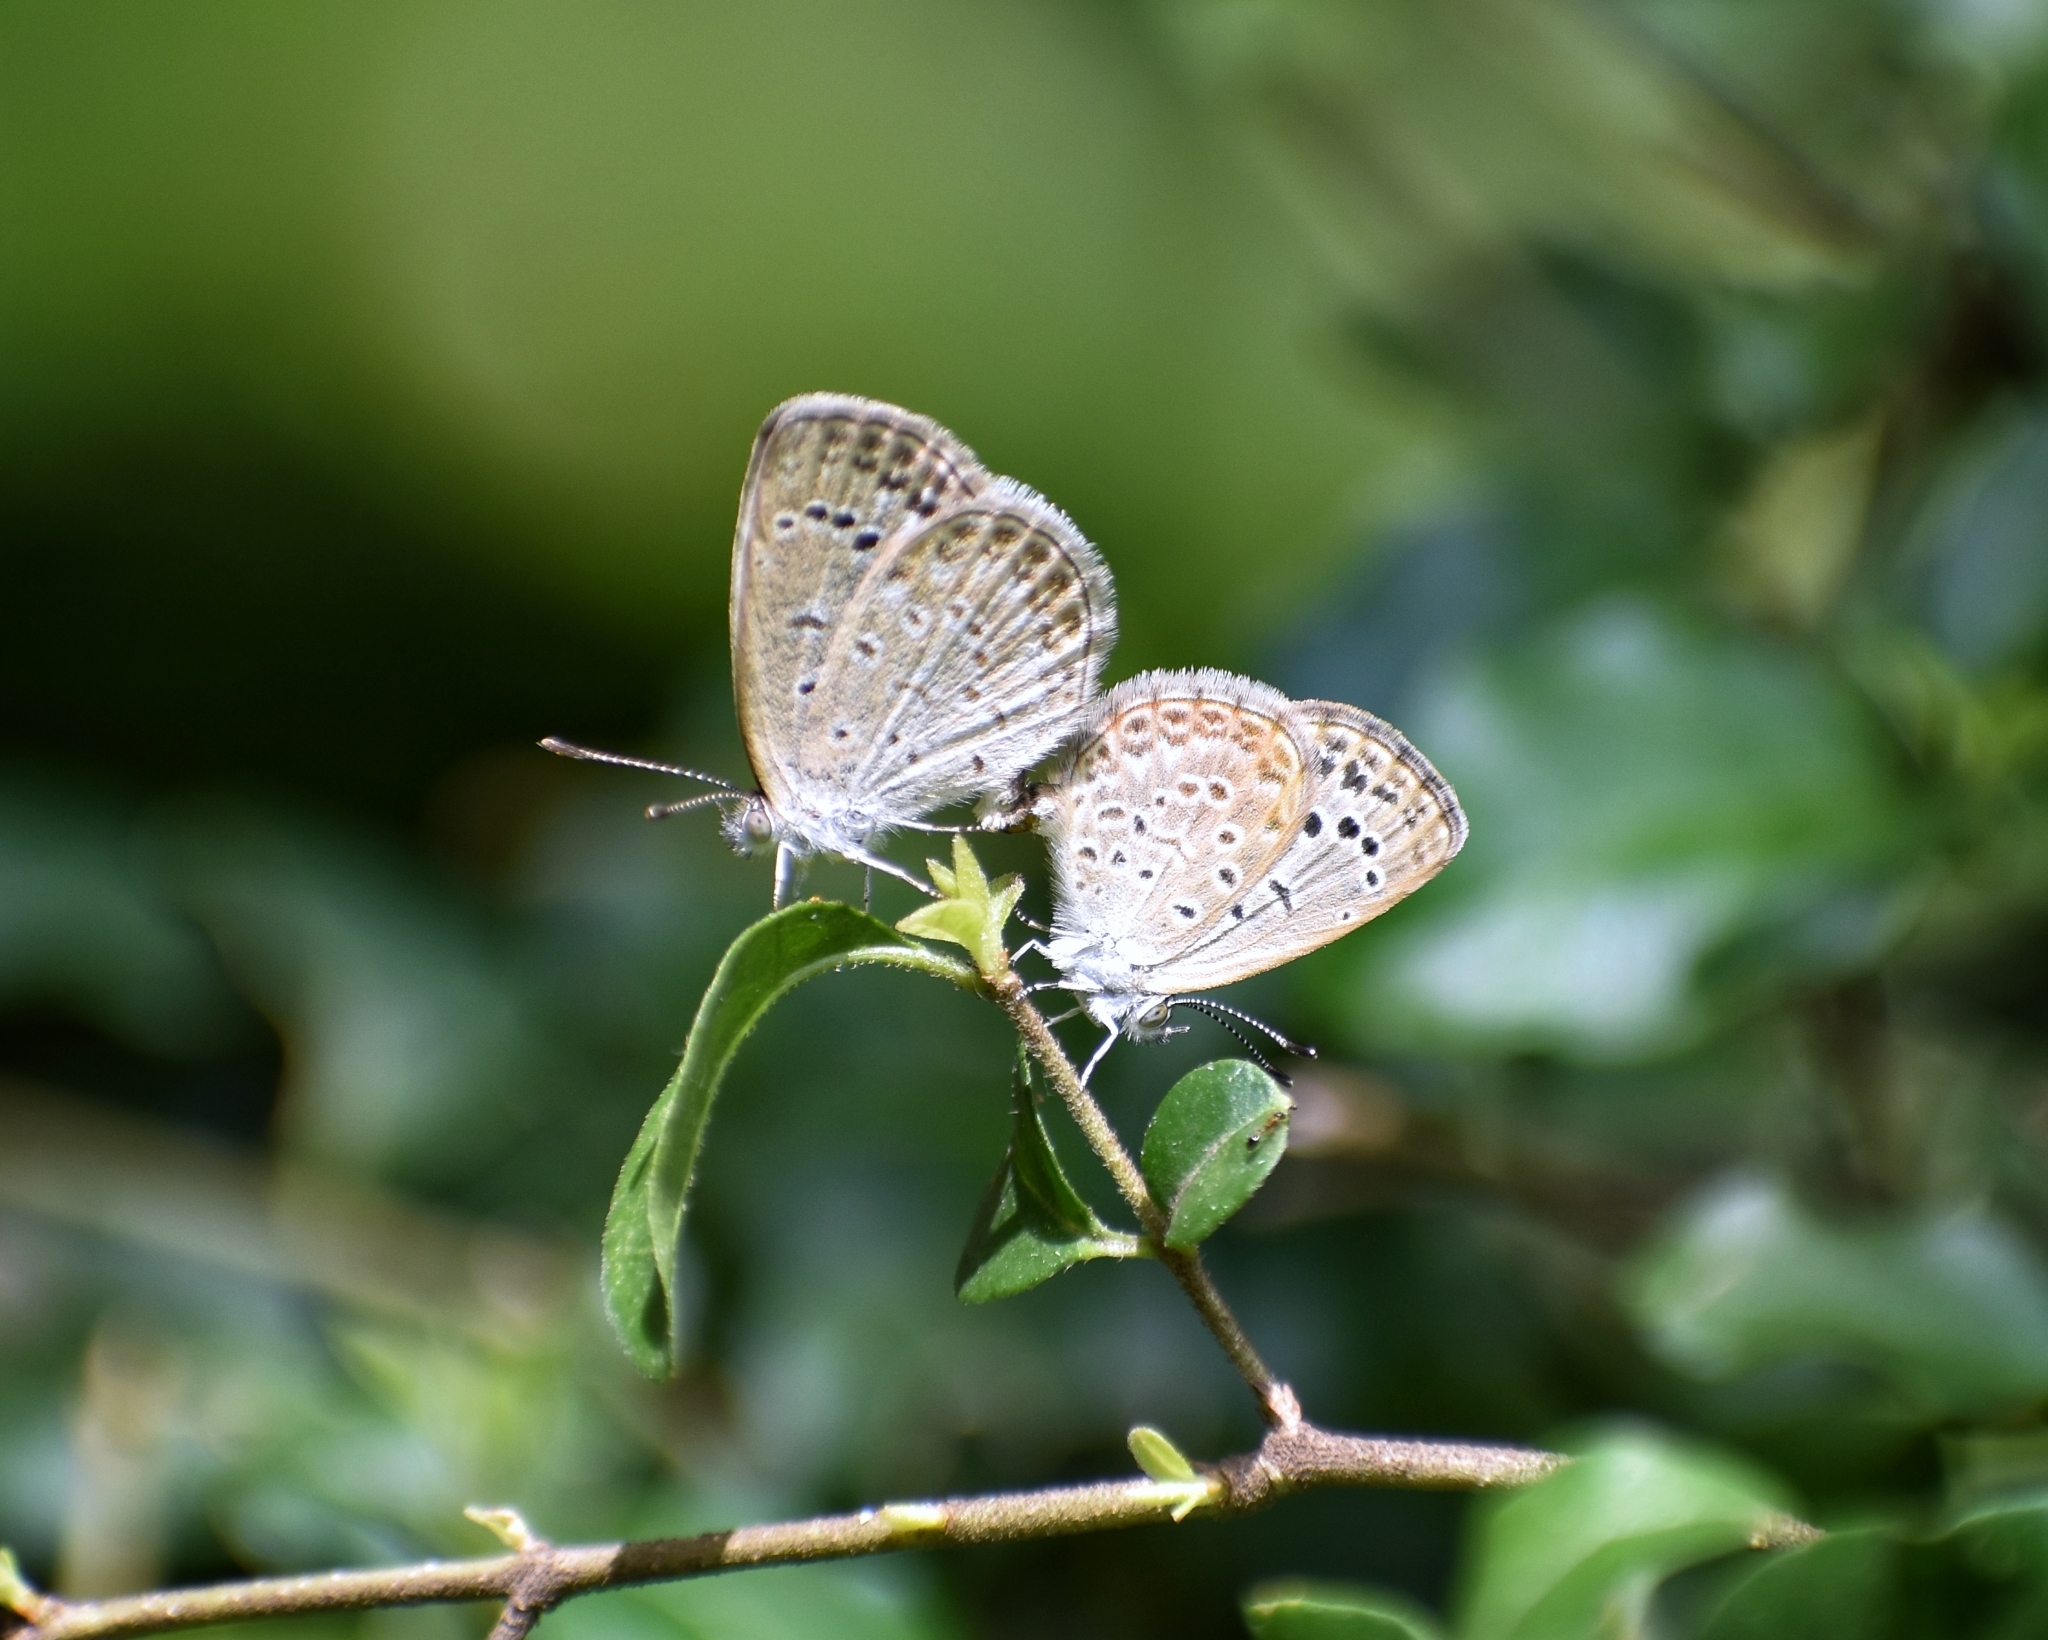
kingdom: Animalia
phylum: Arthropoda
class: Insecta
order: Lepidoptera
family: Lycaenidae
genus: Pseudozizeeria
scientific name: Pseudozizeeria maha
